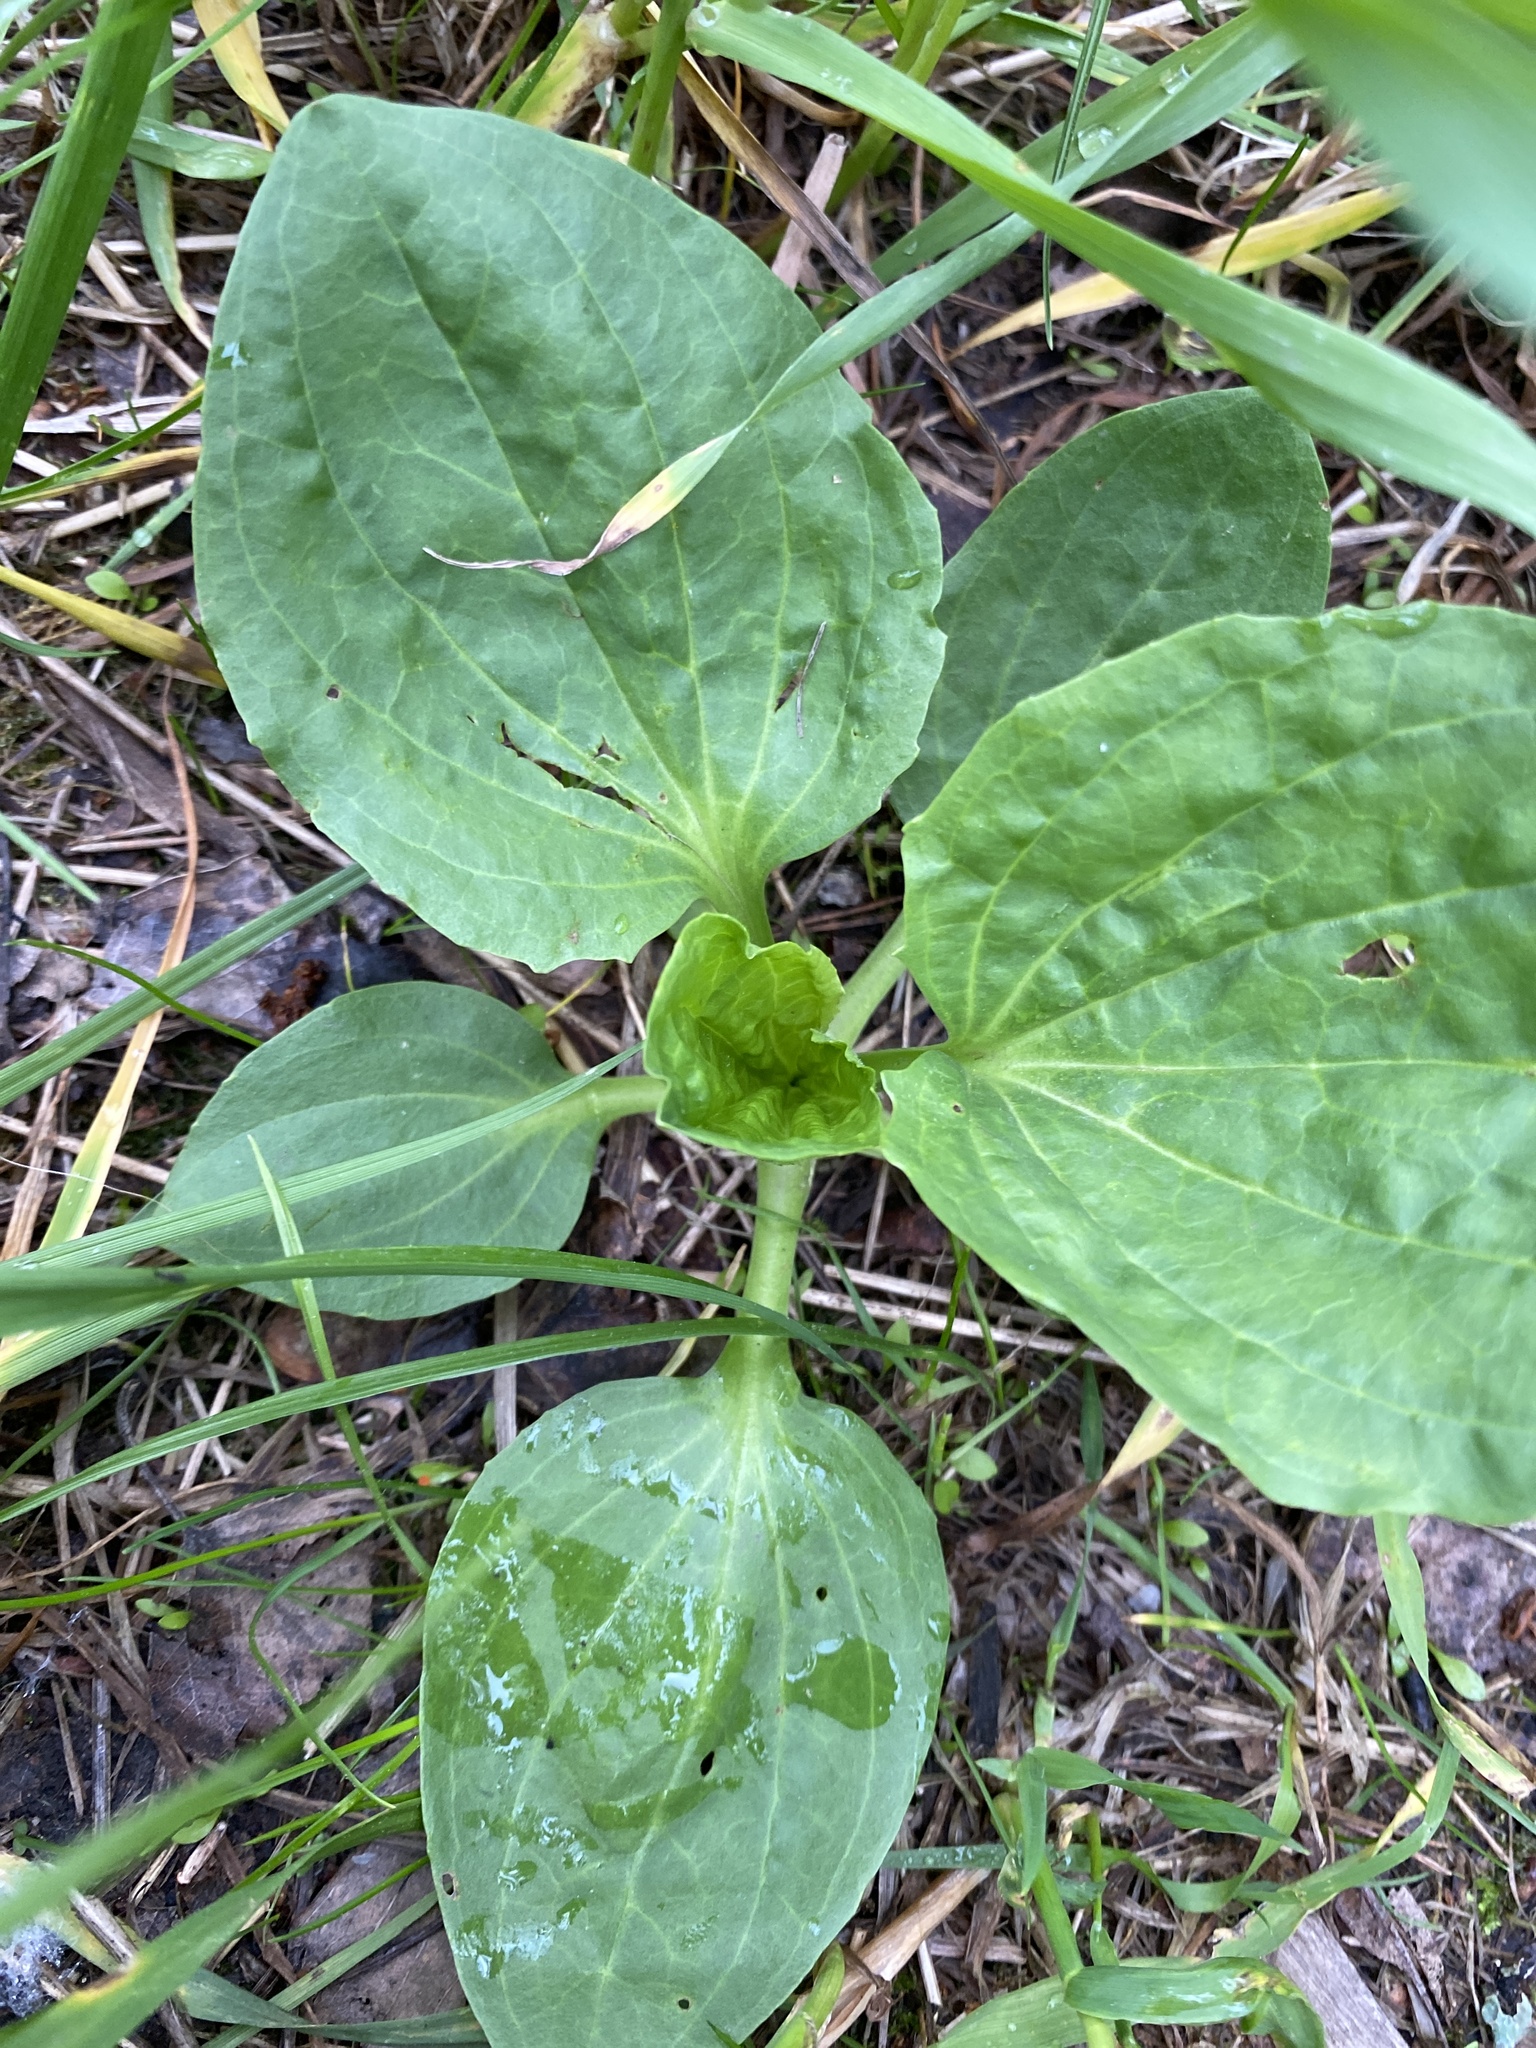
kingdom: Plantae
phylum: Tracheophyta
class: Magnoliopsida
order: Lamiales
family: Plantaginaceae
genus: Plantago
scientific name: Plantago major
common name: Common plantain
